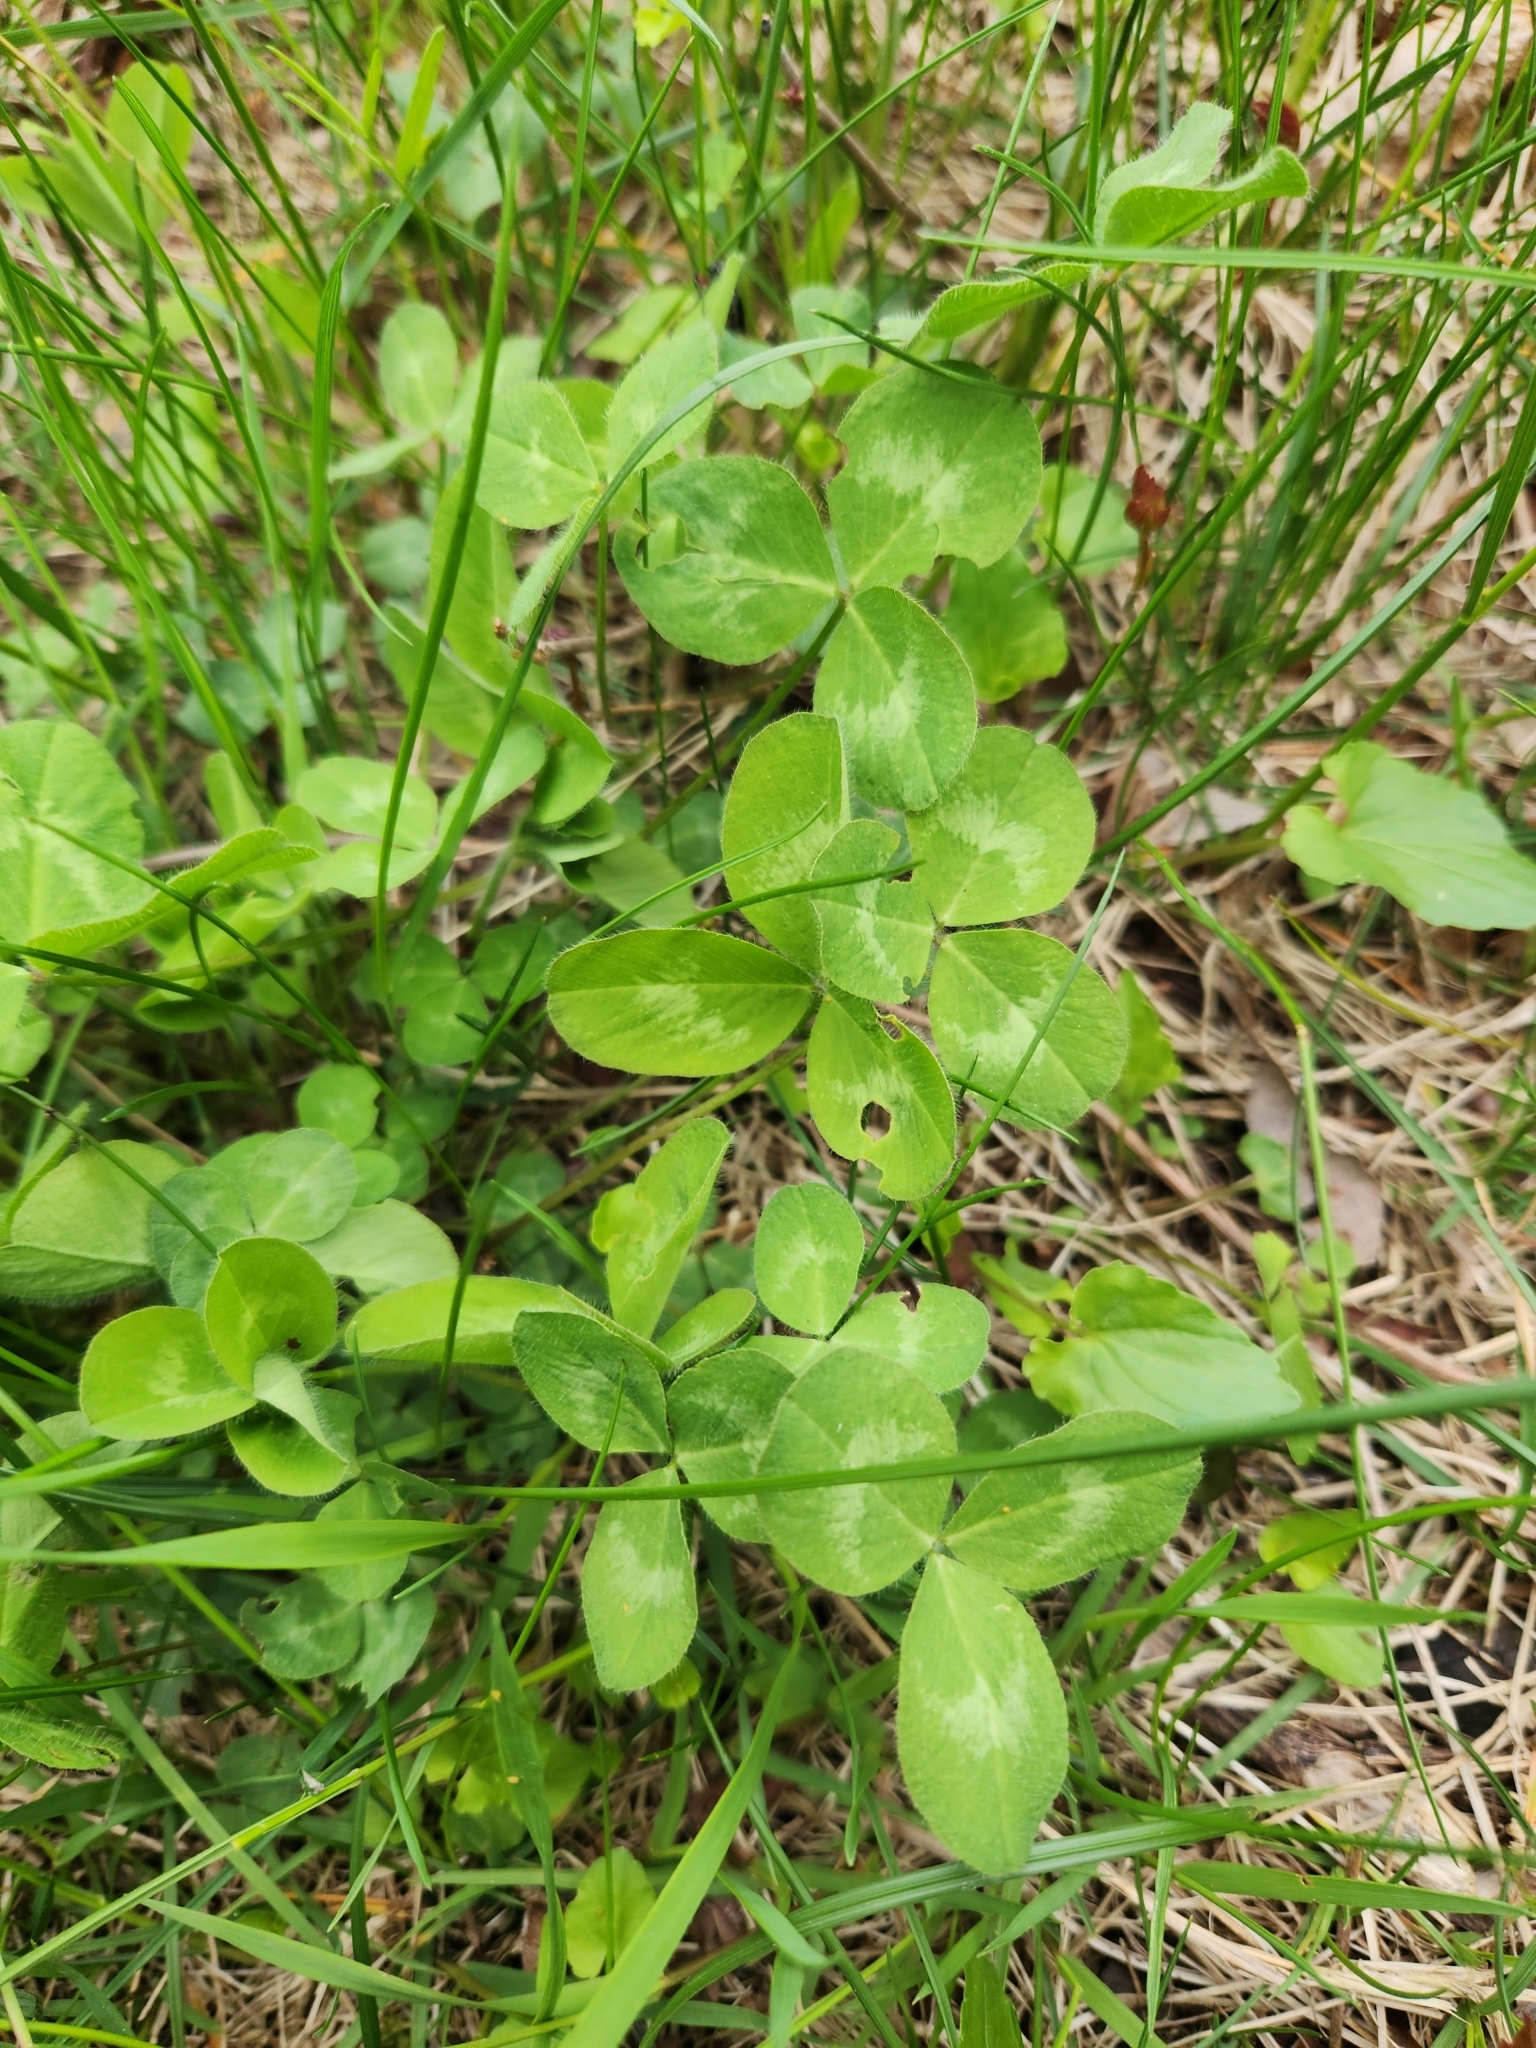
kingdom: Plantae
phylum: Tracheophyta
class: Magnoliopsida
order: Fabales
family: Fabaceae
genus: Trifolium
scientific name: Trifolium pratense
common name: Red clover
